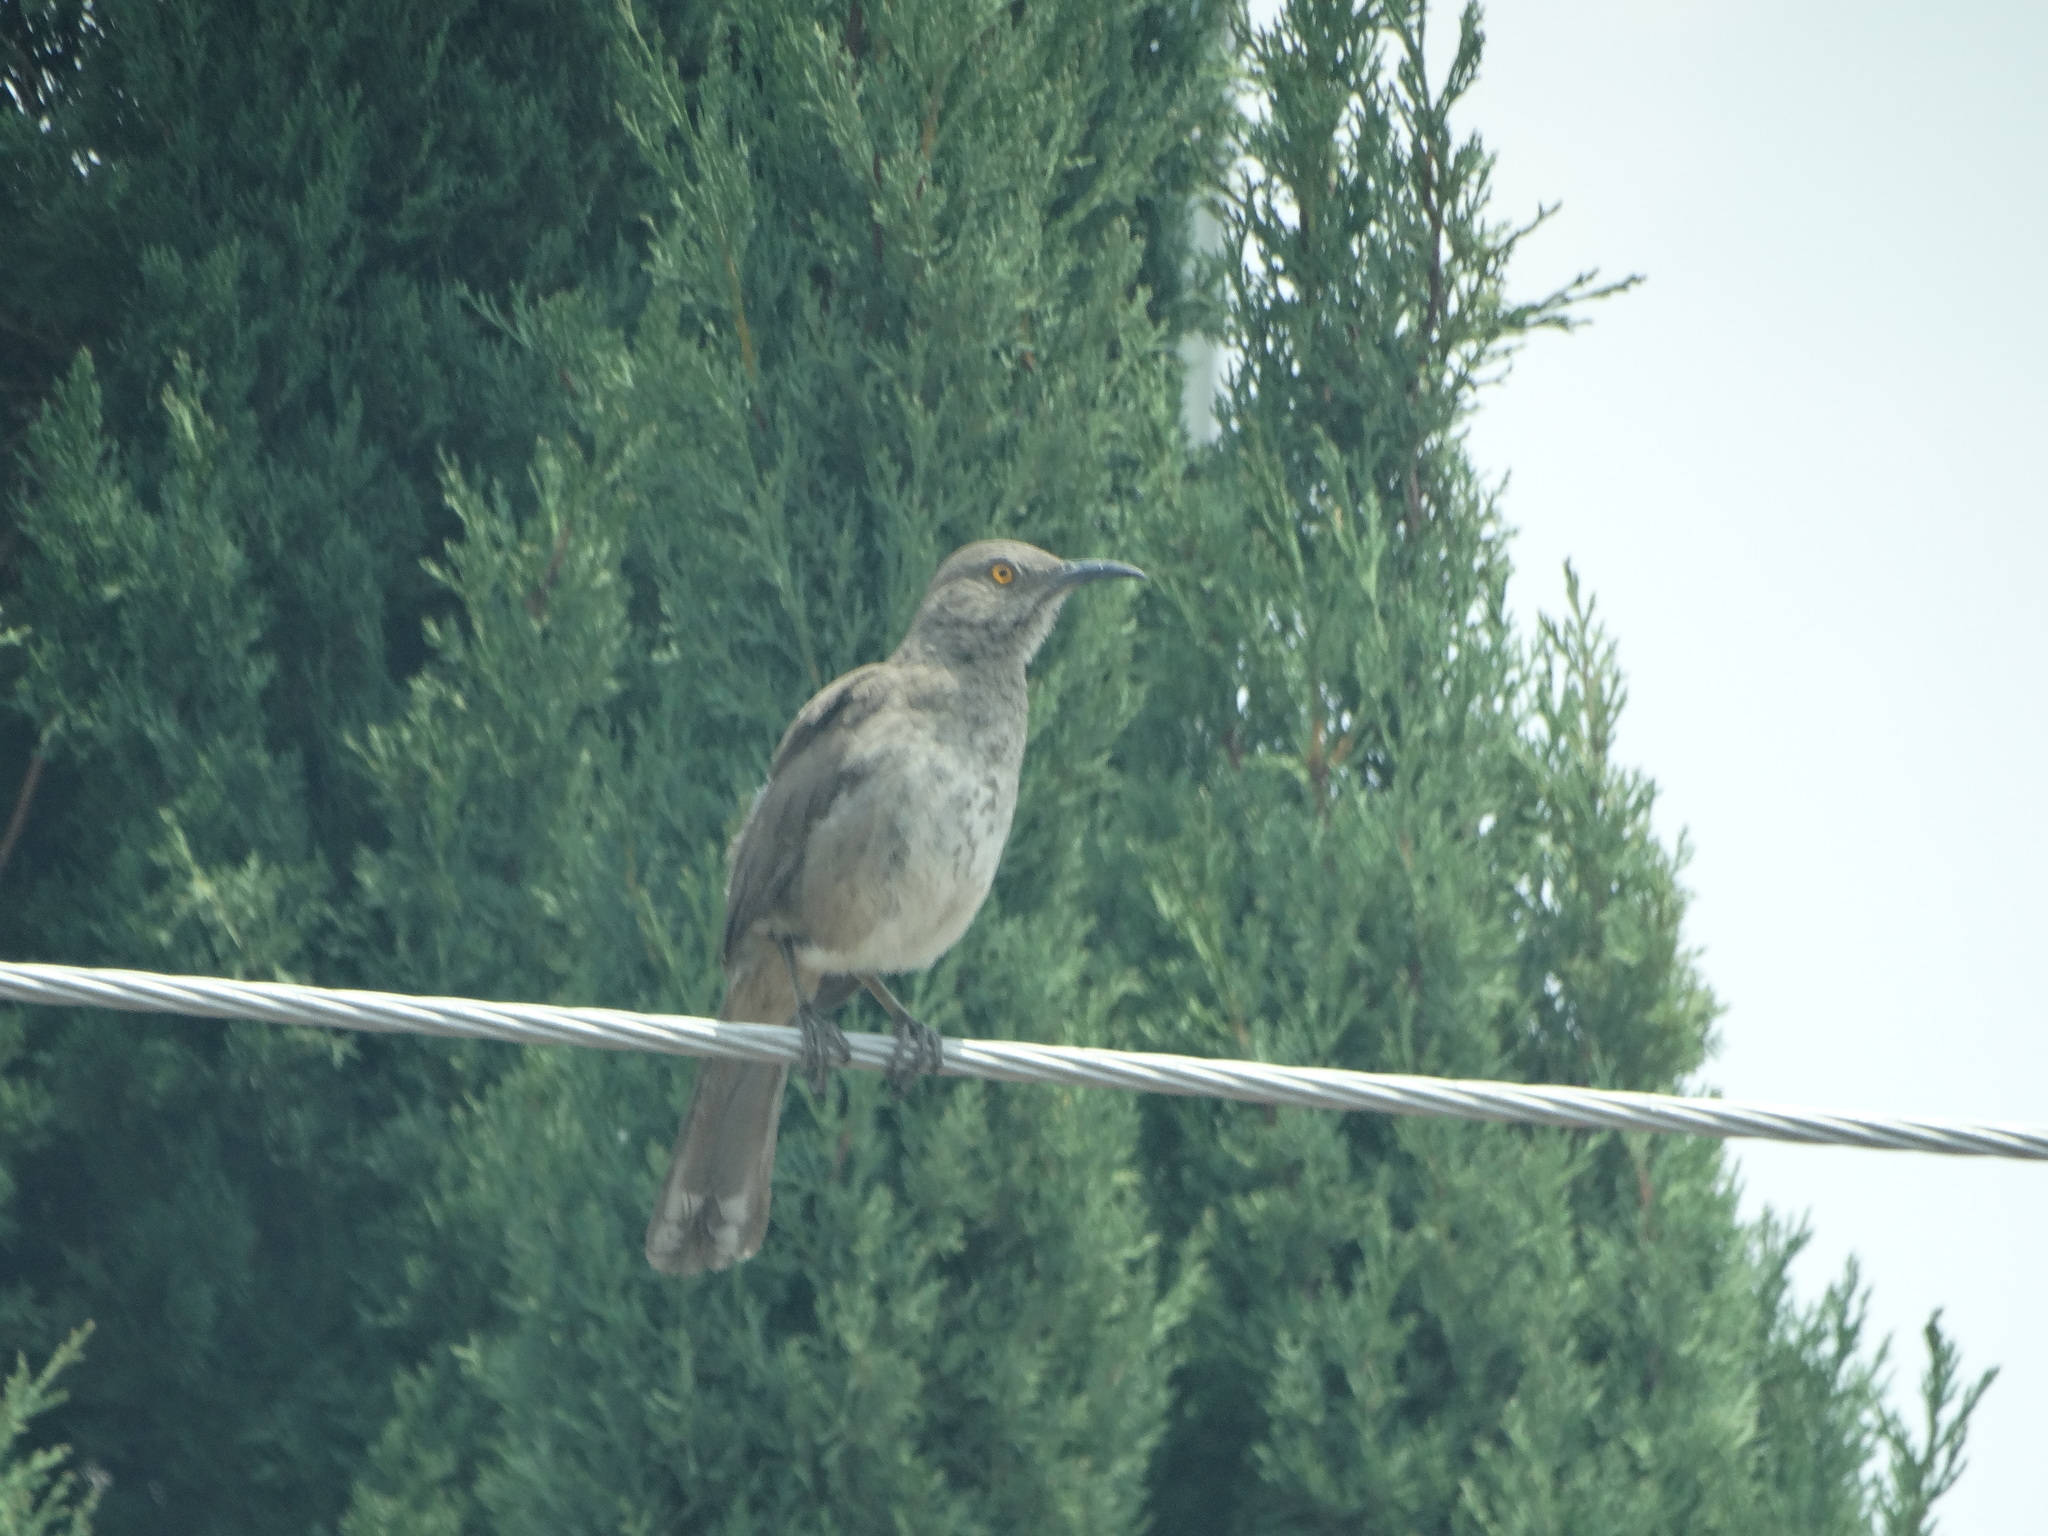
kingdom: Animalia
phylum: Chordata
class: Aves
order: Passeriformes
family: Mimidae
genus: Toxostoma
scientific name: Toxostoma curvirostre
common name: Curve-billed thrasher
